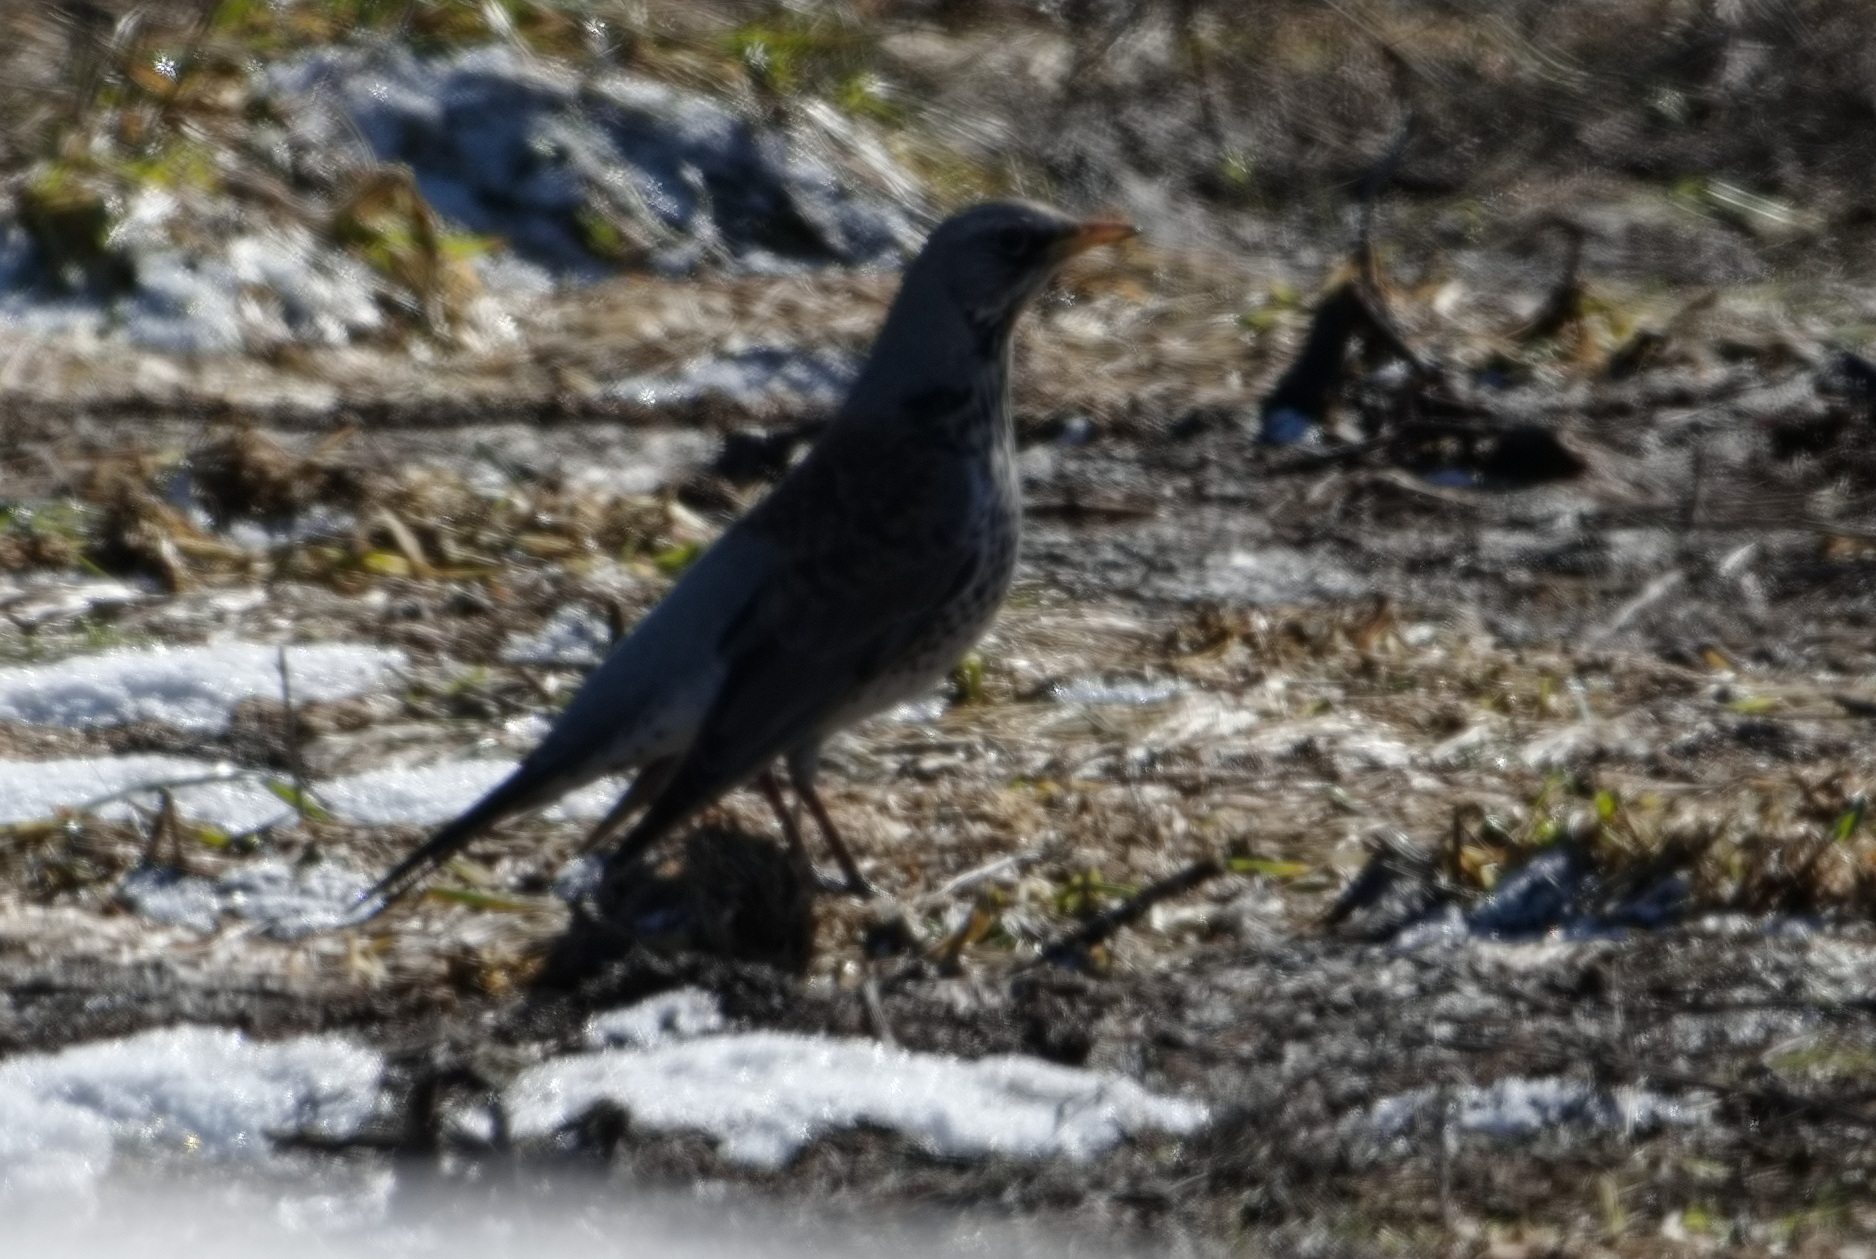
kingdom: Animalia
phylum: Chordata
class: Aves
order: Passeriformes
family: Turdidae
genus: Turdus
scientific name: Turdus pilaris
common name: Fieldfare
